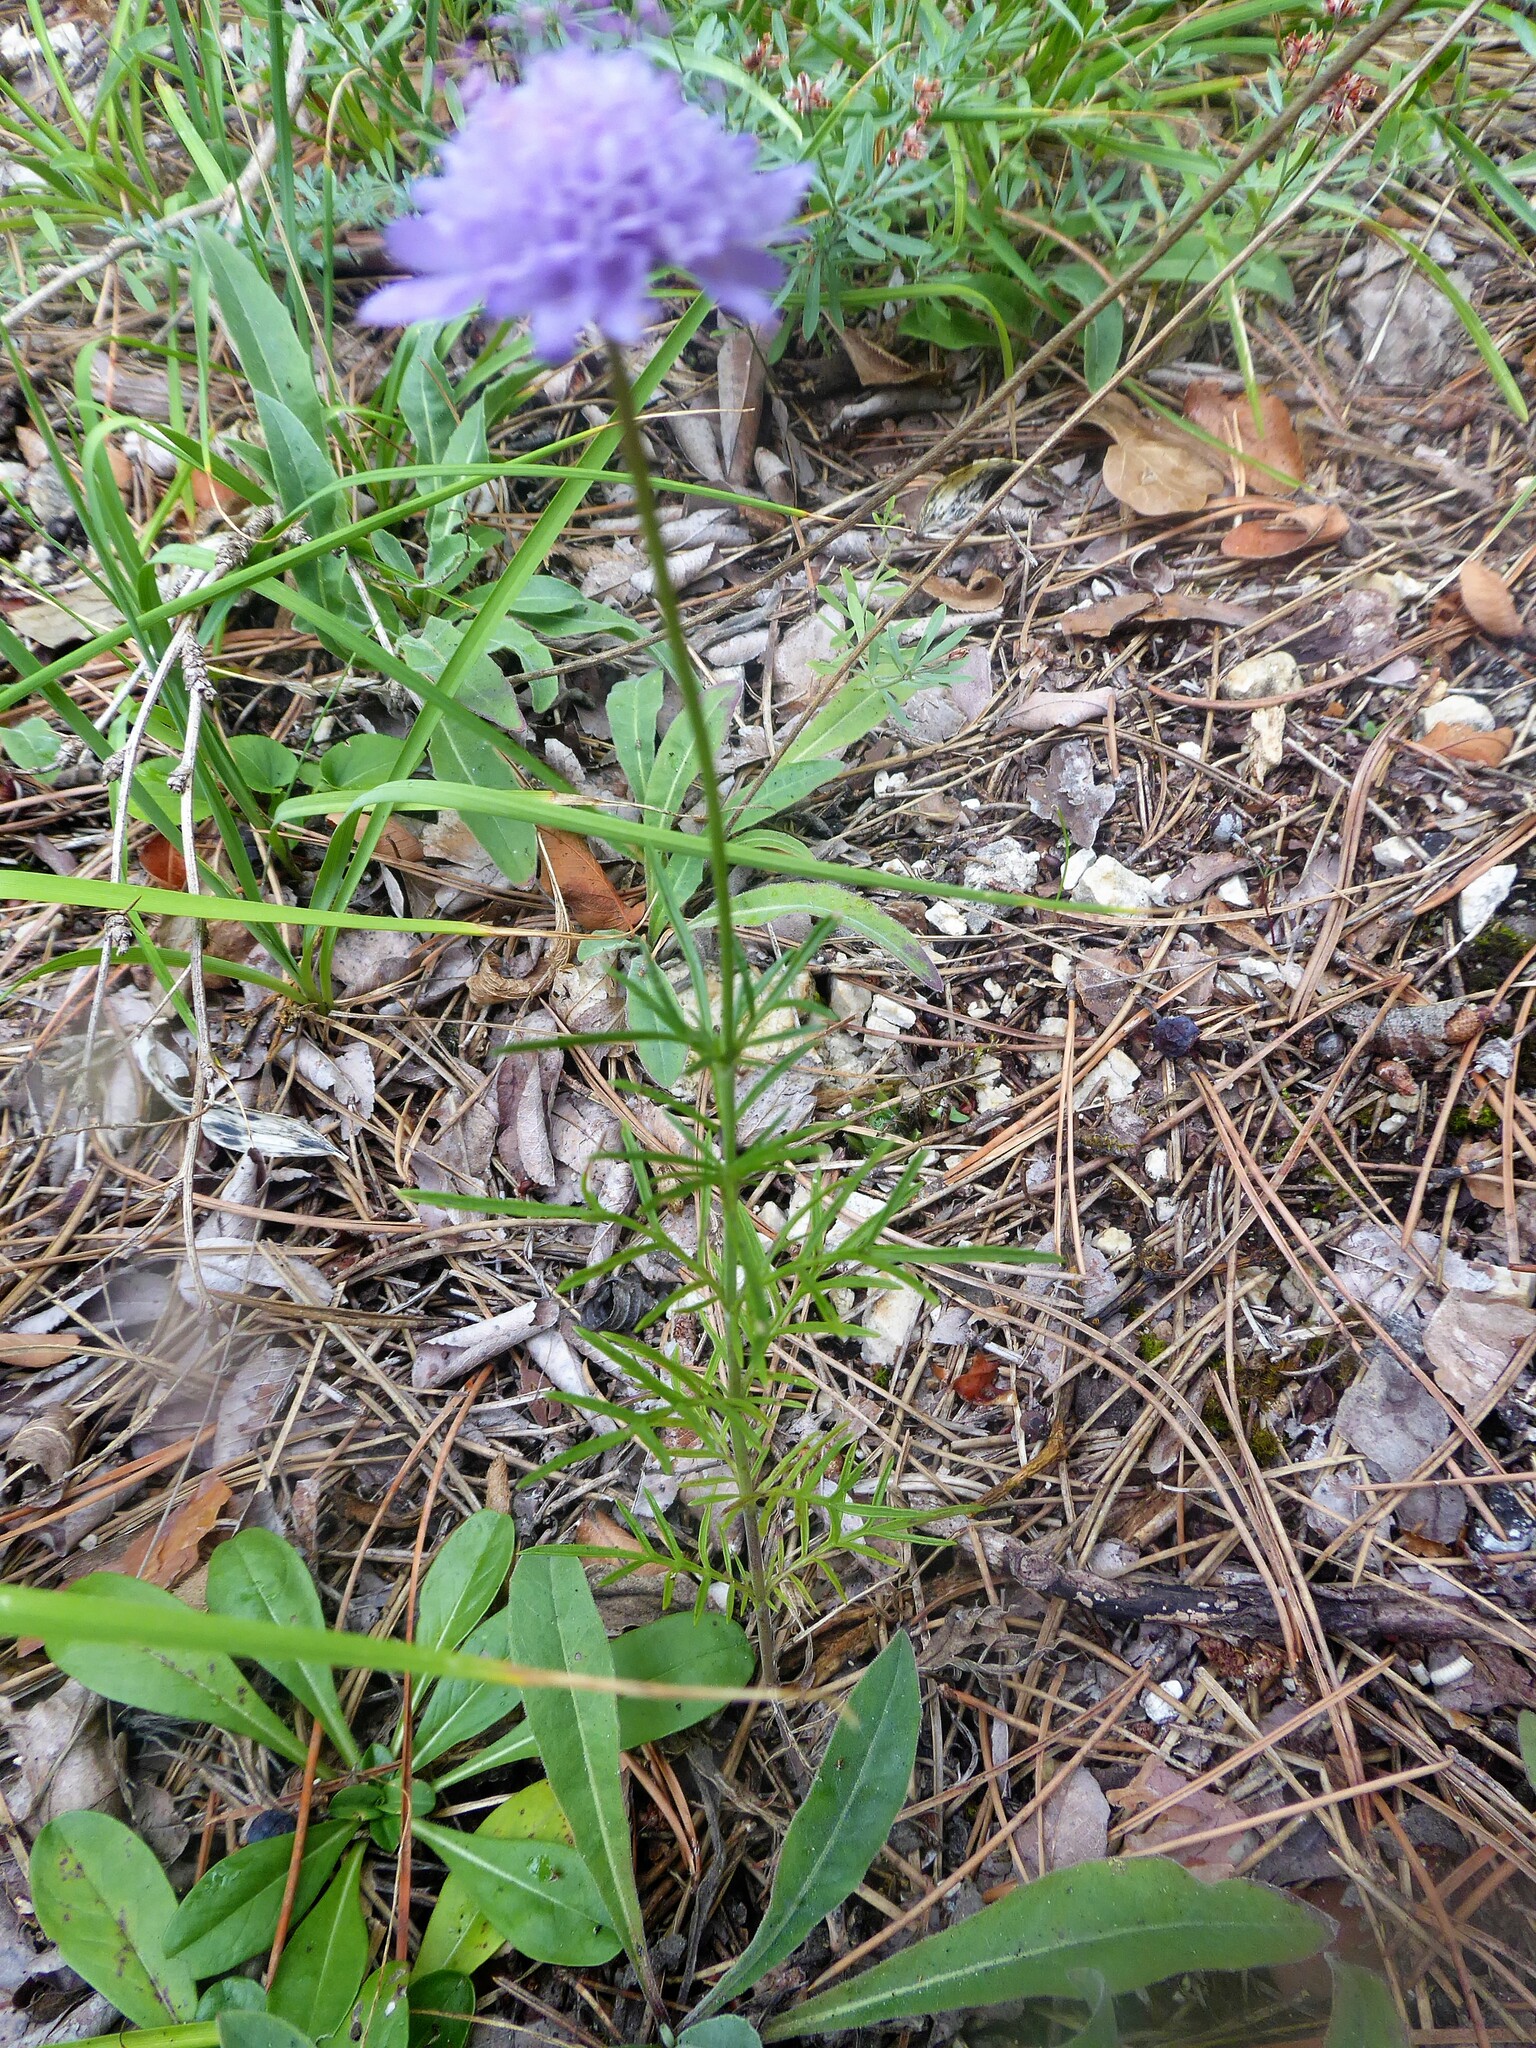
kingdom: Plantae
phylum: Tracheophyta
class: Magnoliopsida
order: Dipsacales
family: Caprifoliaceae
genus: Scabiosa
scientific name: Scabiosa canescens
